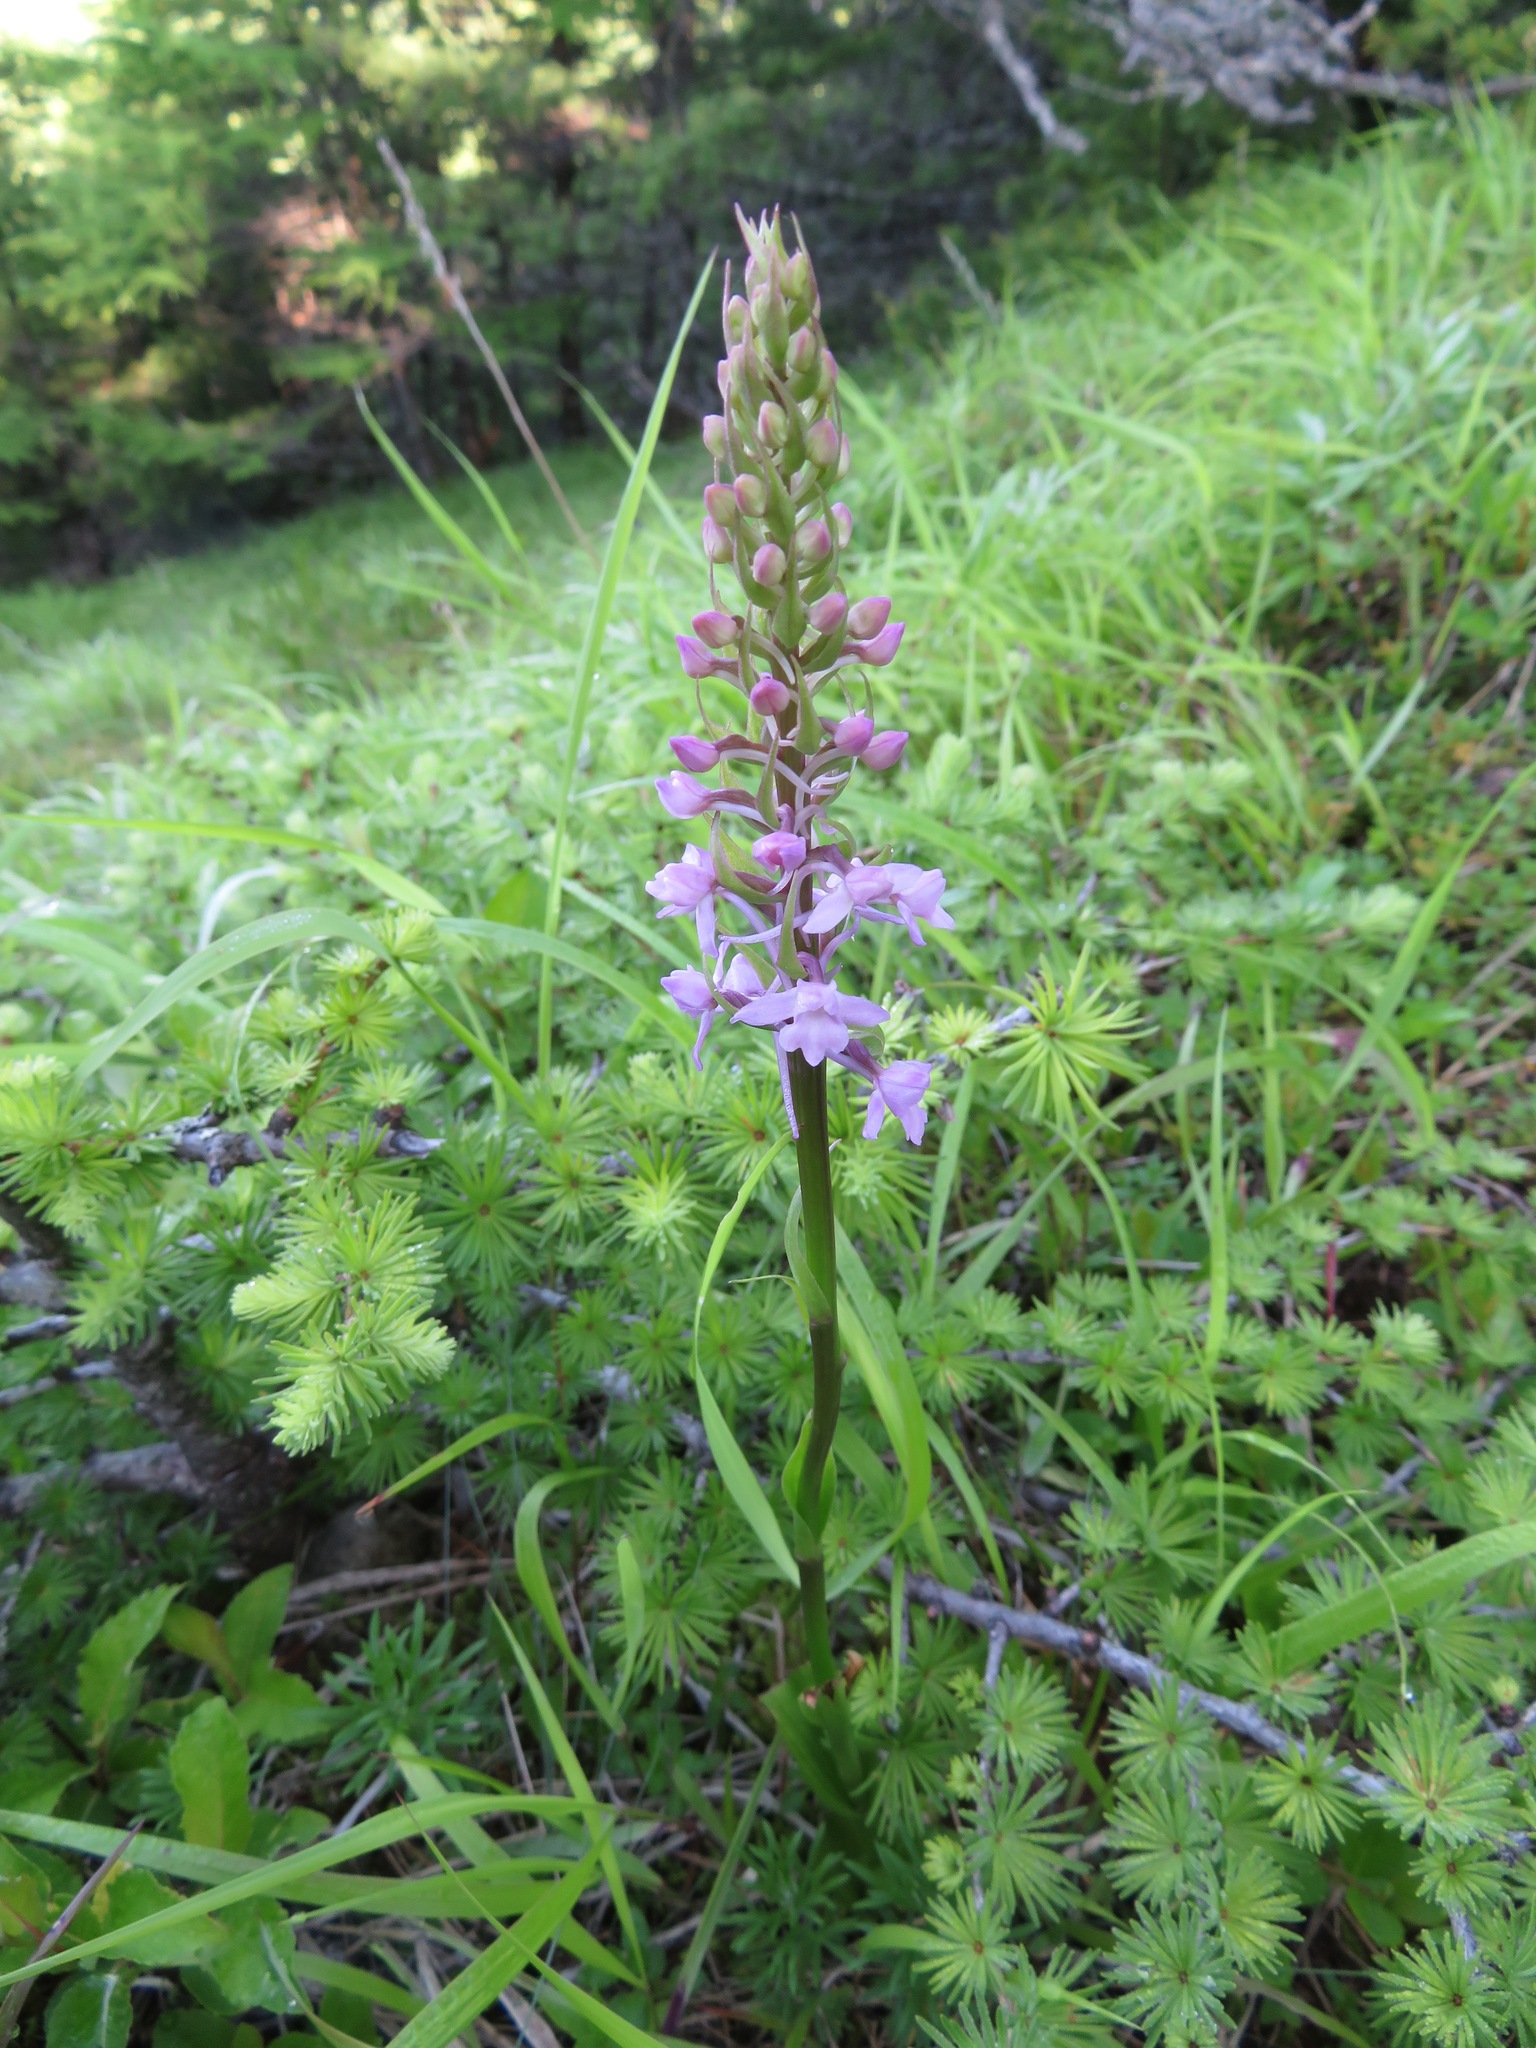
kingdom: Plantae
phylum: Tracheophyta
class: Liliopsida
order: Asparagales
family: Orchidaceae
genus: Gymnadenia
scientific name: Gymnadenia conopsea
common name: Fragrant orchid
